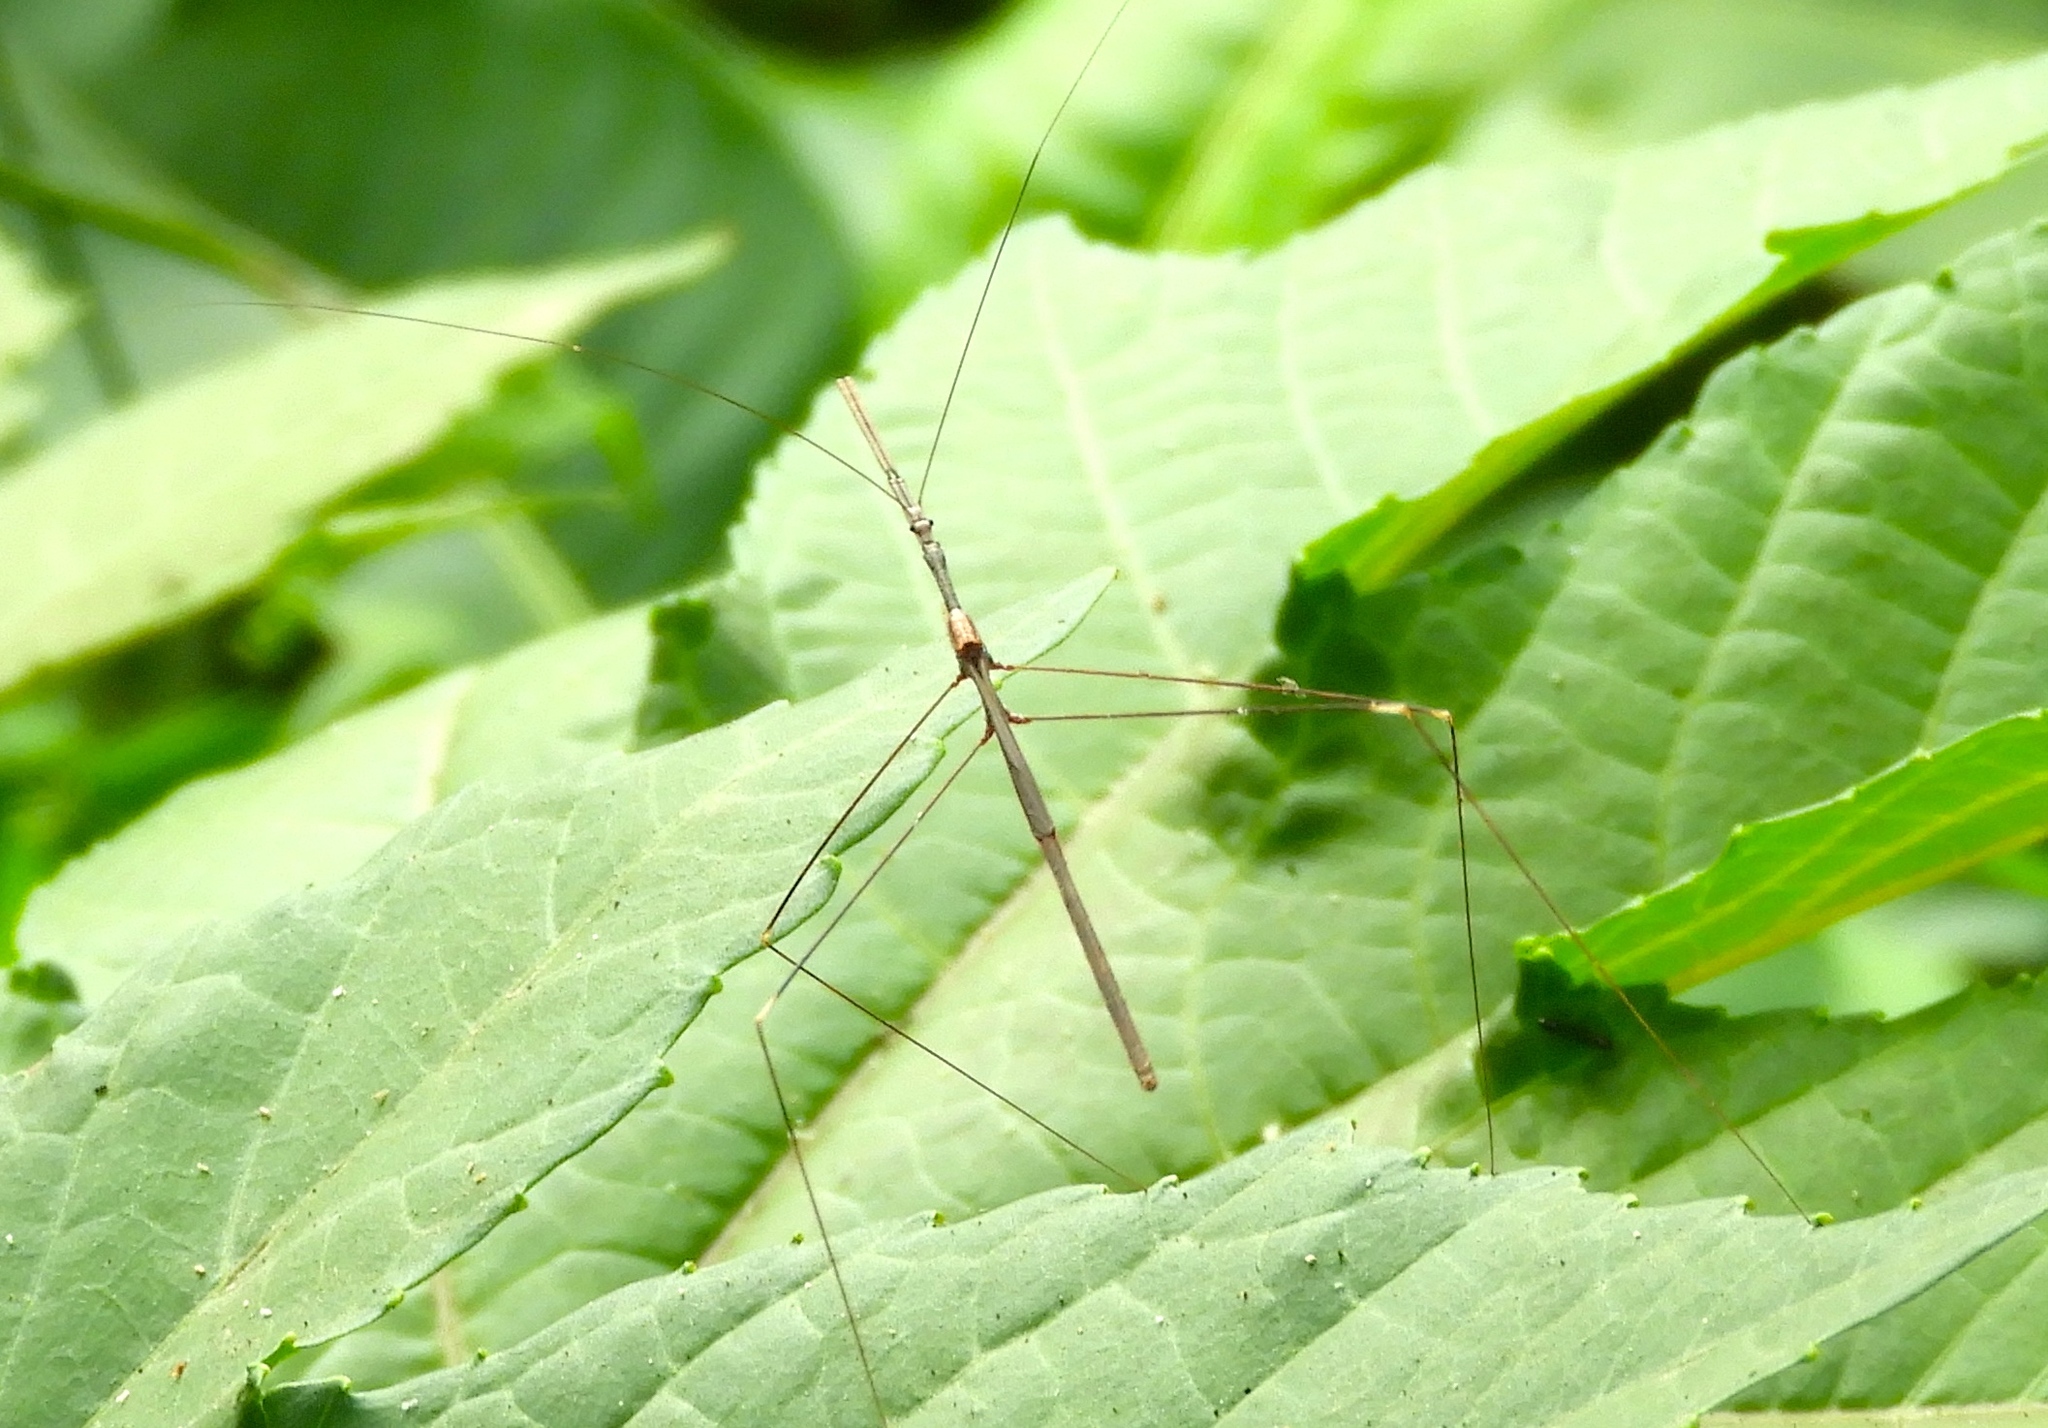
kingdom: Animalia
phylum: Arthropoda
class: Insecta
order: Hemiptera
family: Reduviidae
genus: Emesaya
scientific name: Emesaya
